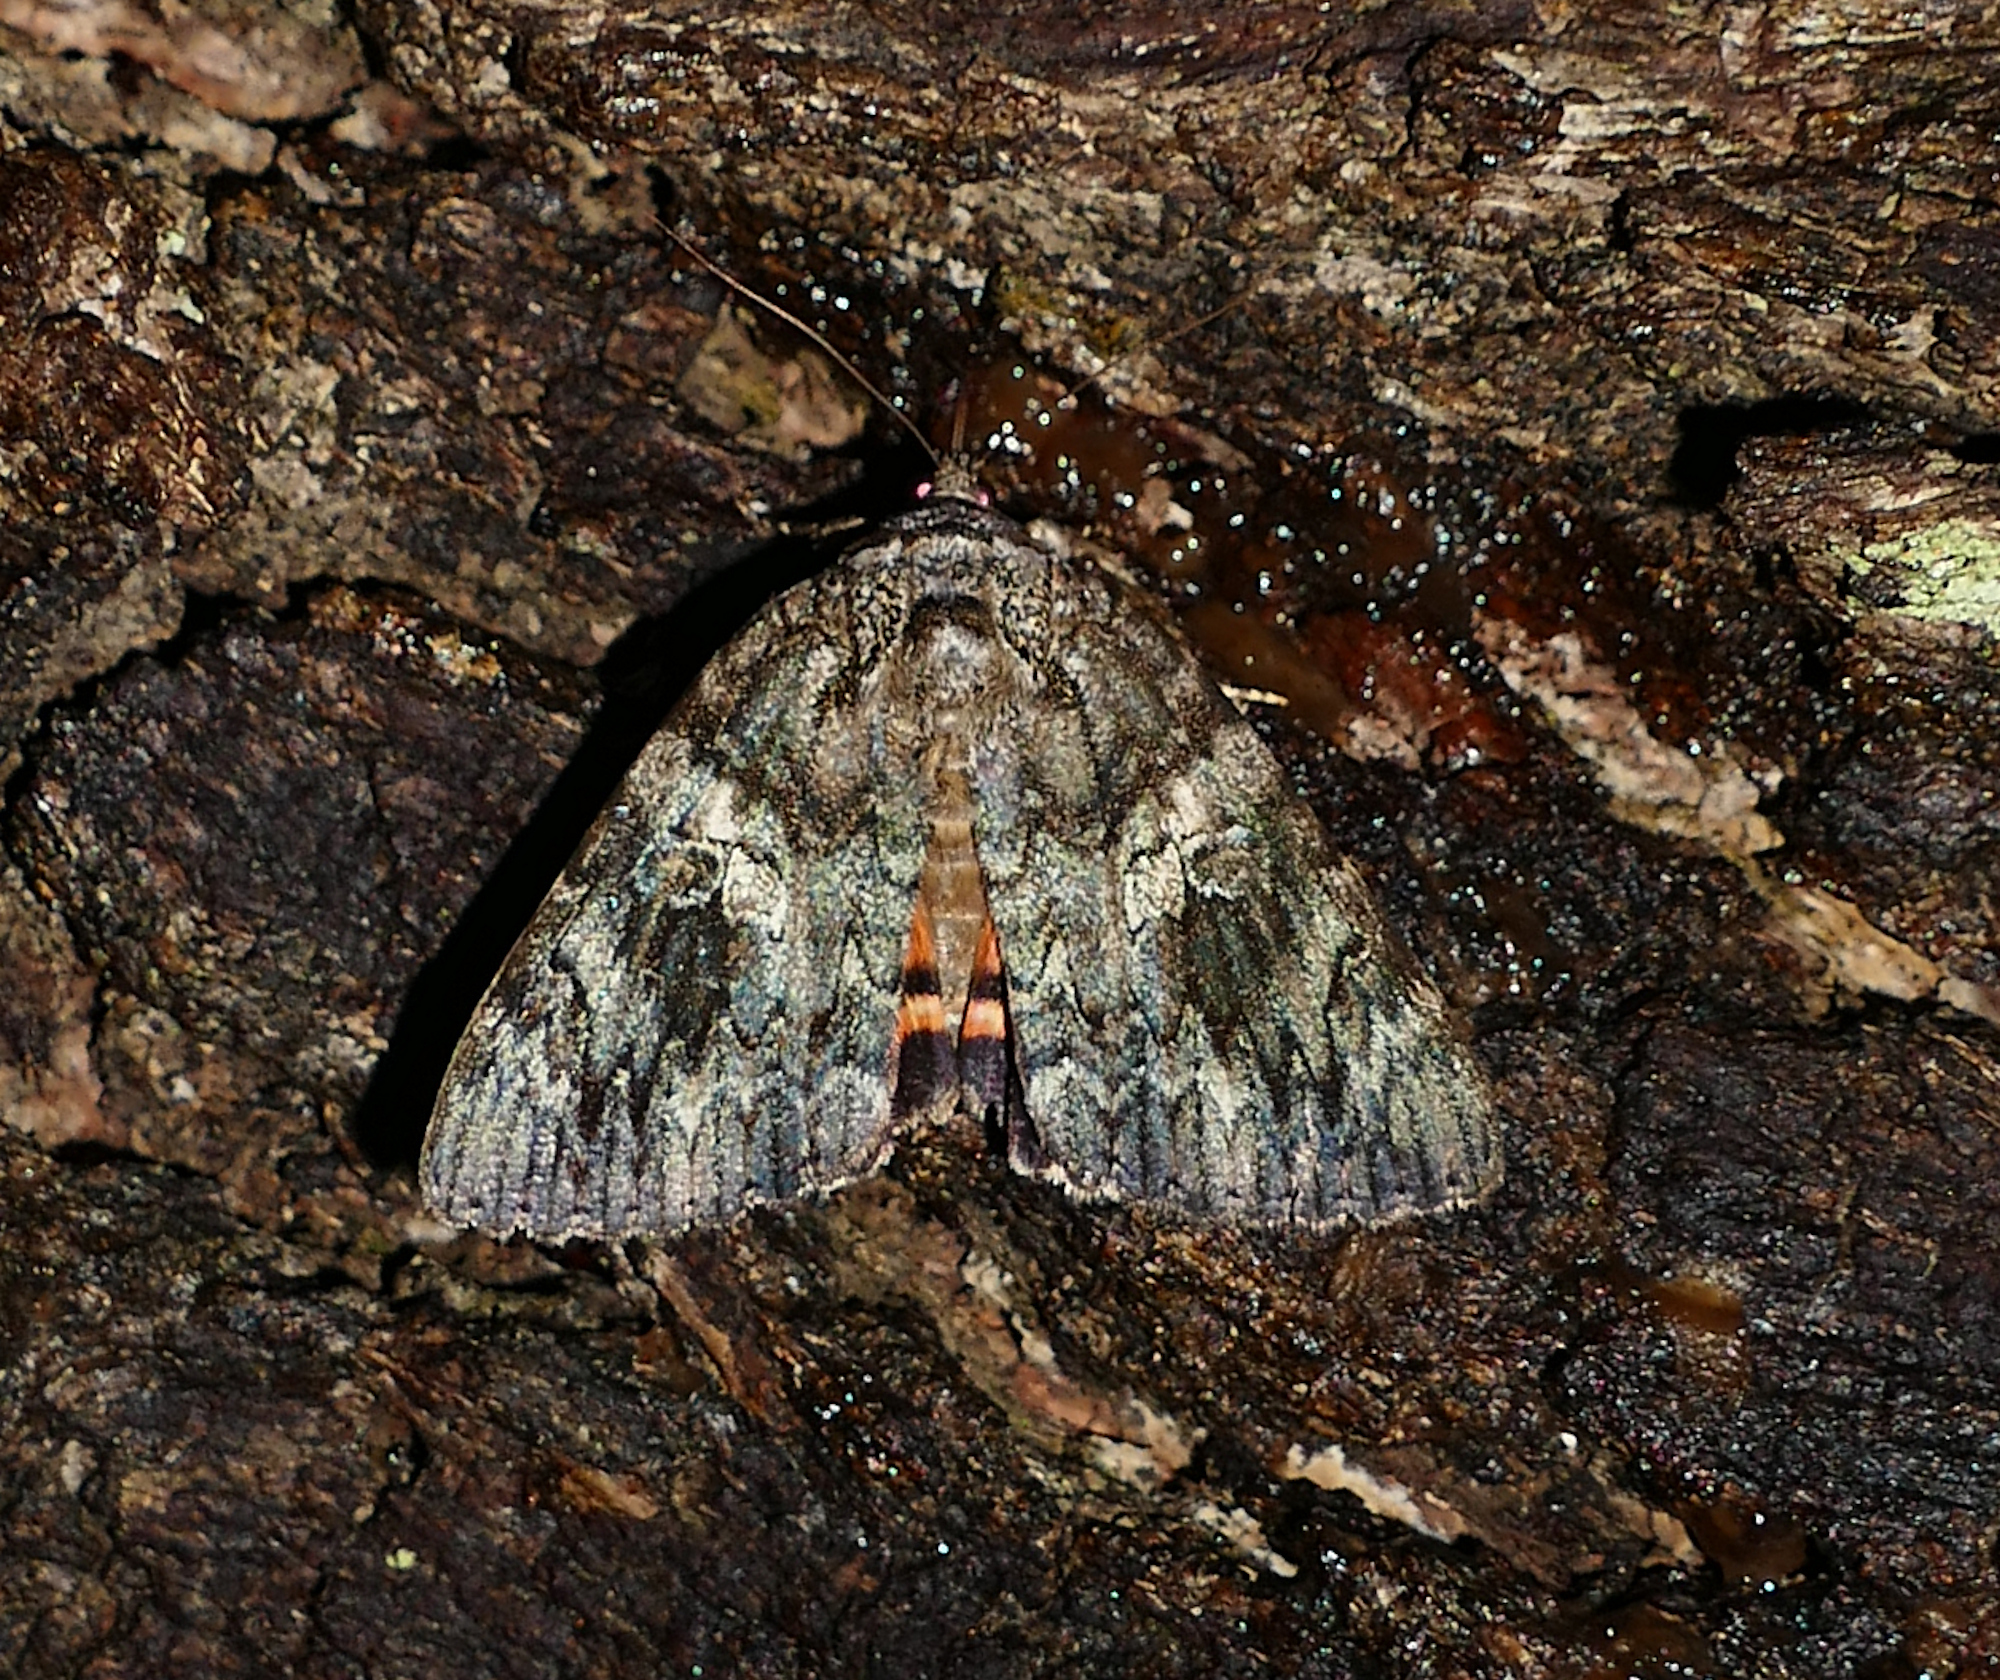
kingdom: Animalia
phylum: Arthropoda
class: Insecta
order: Lepidoptera
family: Erebidae
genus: Catocala
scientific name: Catocala ilia
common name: Ilia underwing
